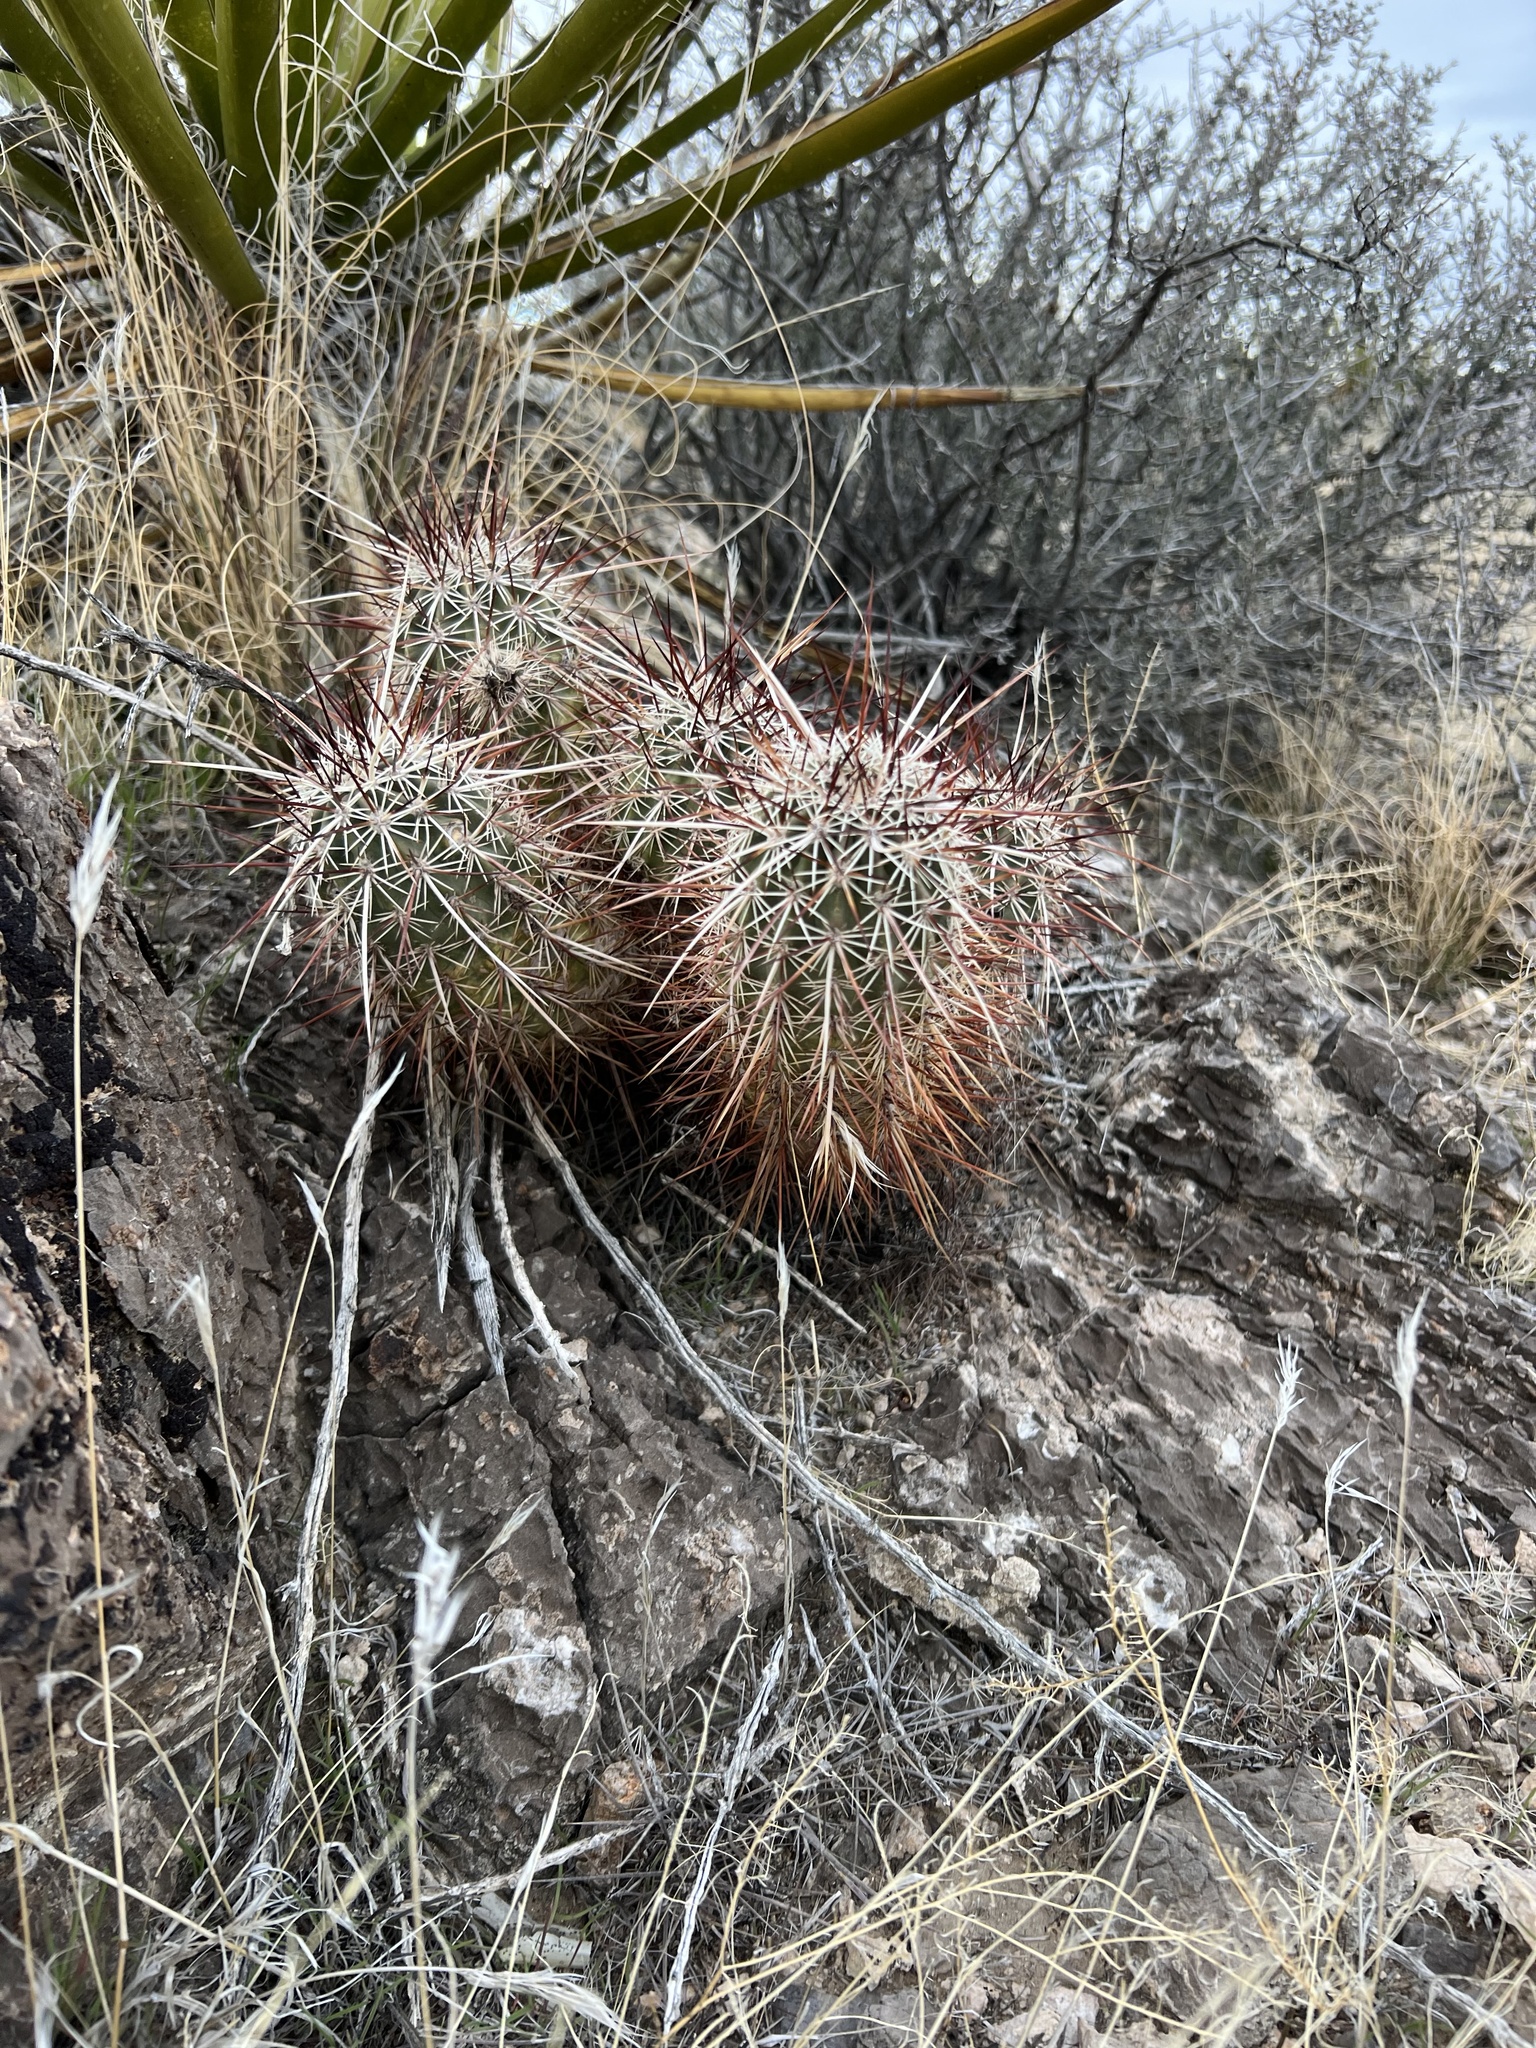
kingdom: Plantae
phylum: Tracheophyta
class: Magnoliopsida
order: Caryophyllales
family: Cactaceae
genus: Echinocereus
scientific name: Echinocereus engelmannii
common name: Engelmann's hedgehog cactus
